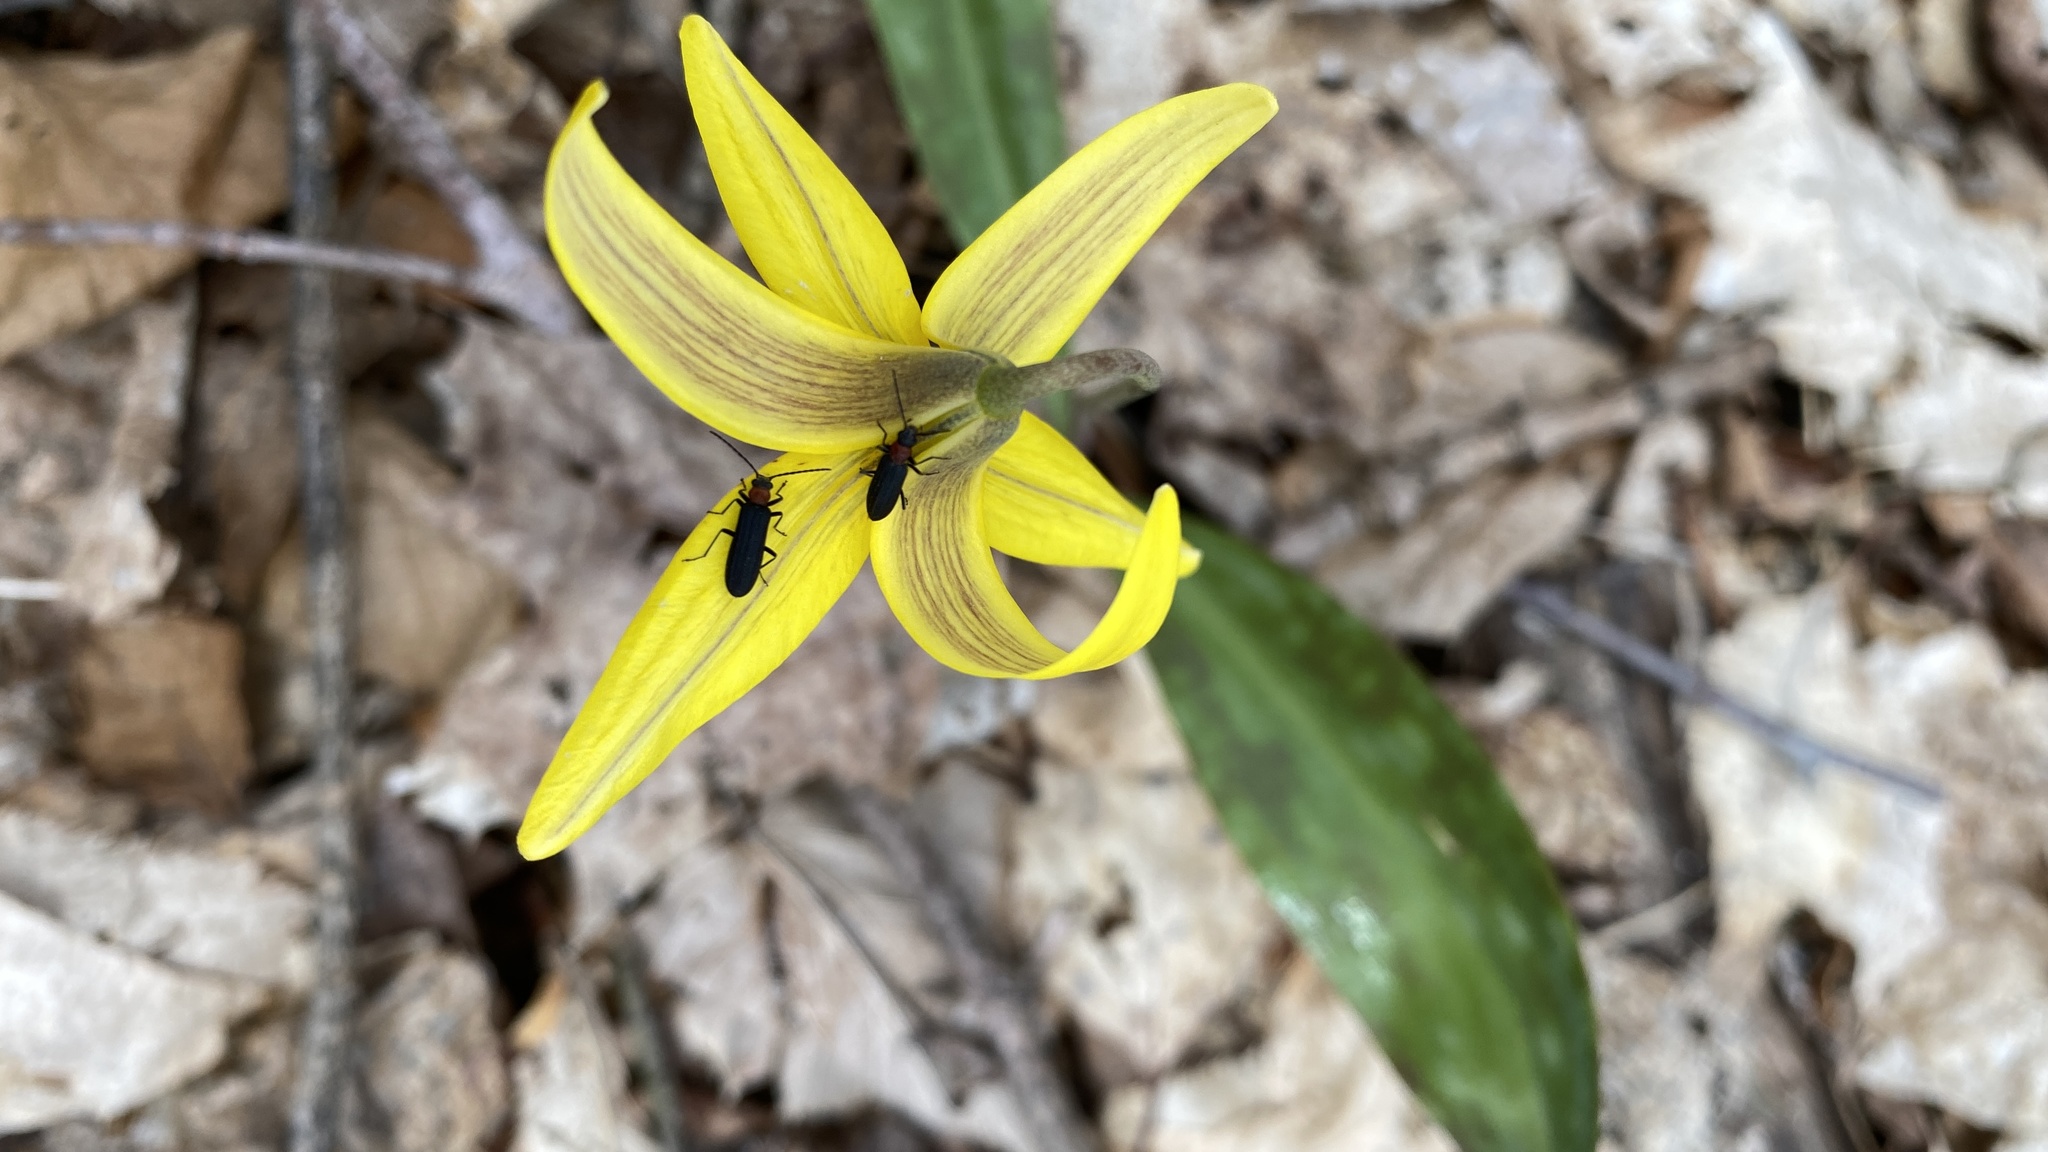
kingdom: Animalia
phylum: Arthropoda
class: Insecta
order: Coleoptera
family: Oedemeridae
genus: Ischnomera
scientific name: Ischnomera
